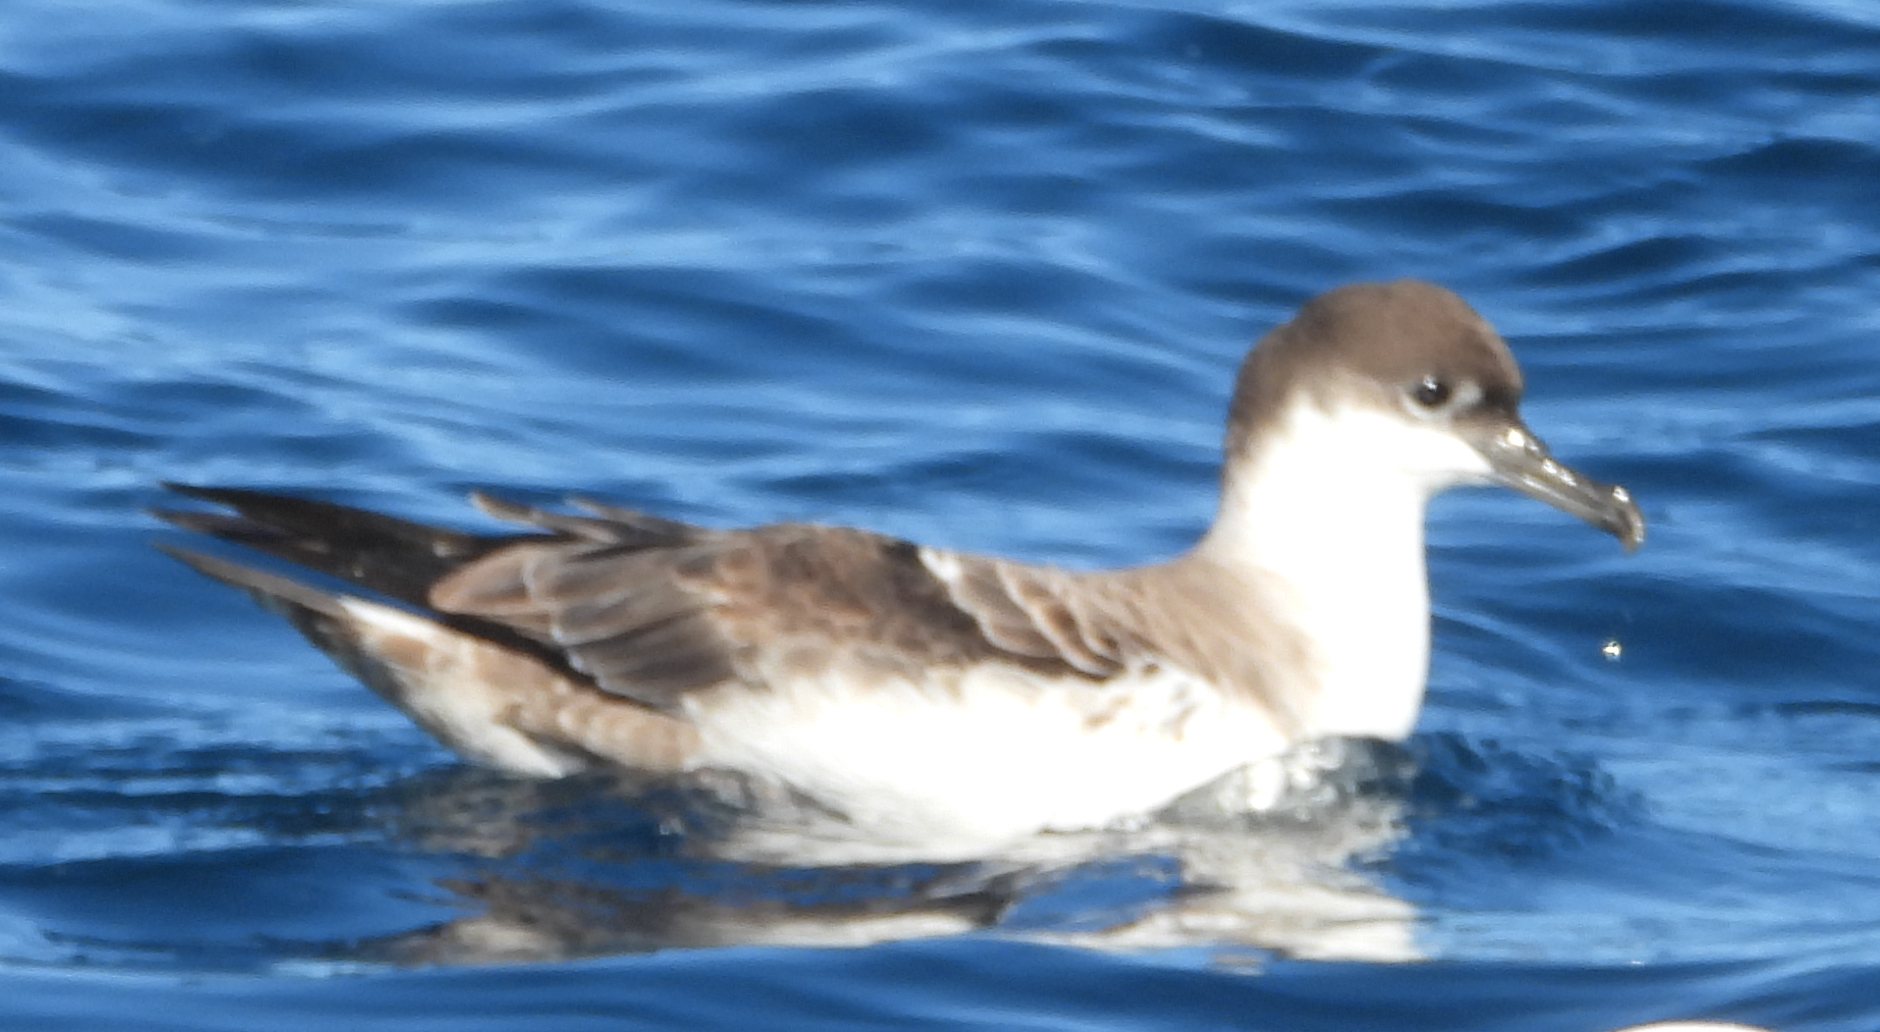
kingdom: Animalia
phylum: Chordata
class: Aves
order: Procellariiformes
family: Procellariidae
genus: Puffinus
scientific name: Puffinus gravis
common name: Great shearwater
